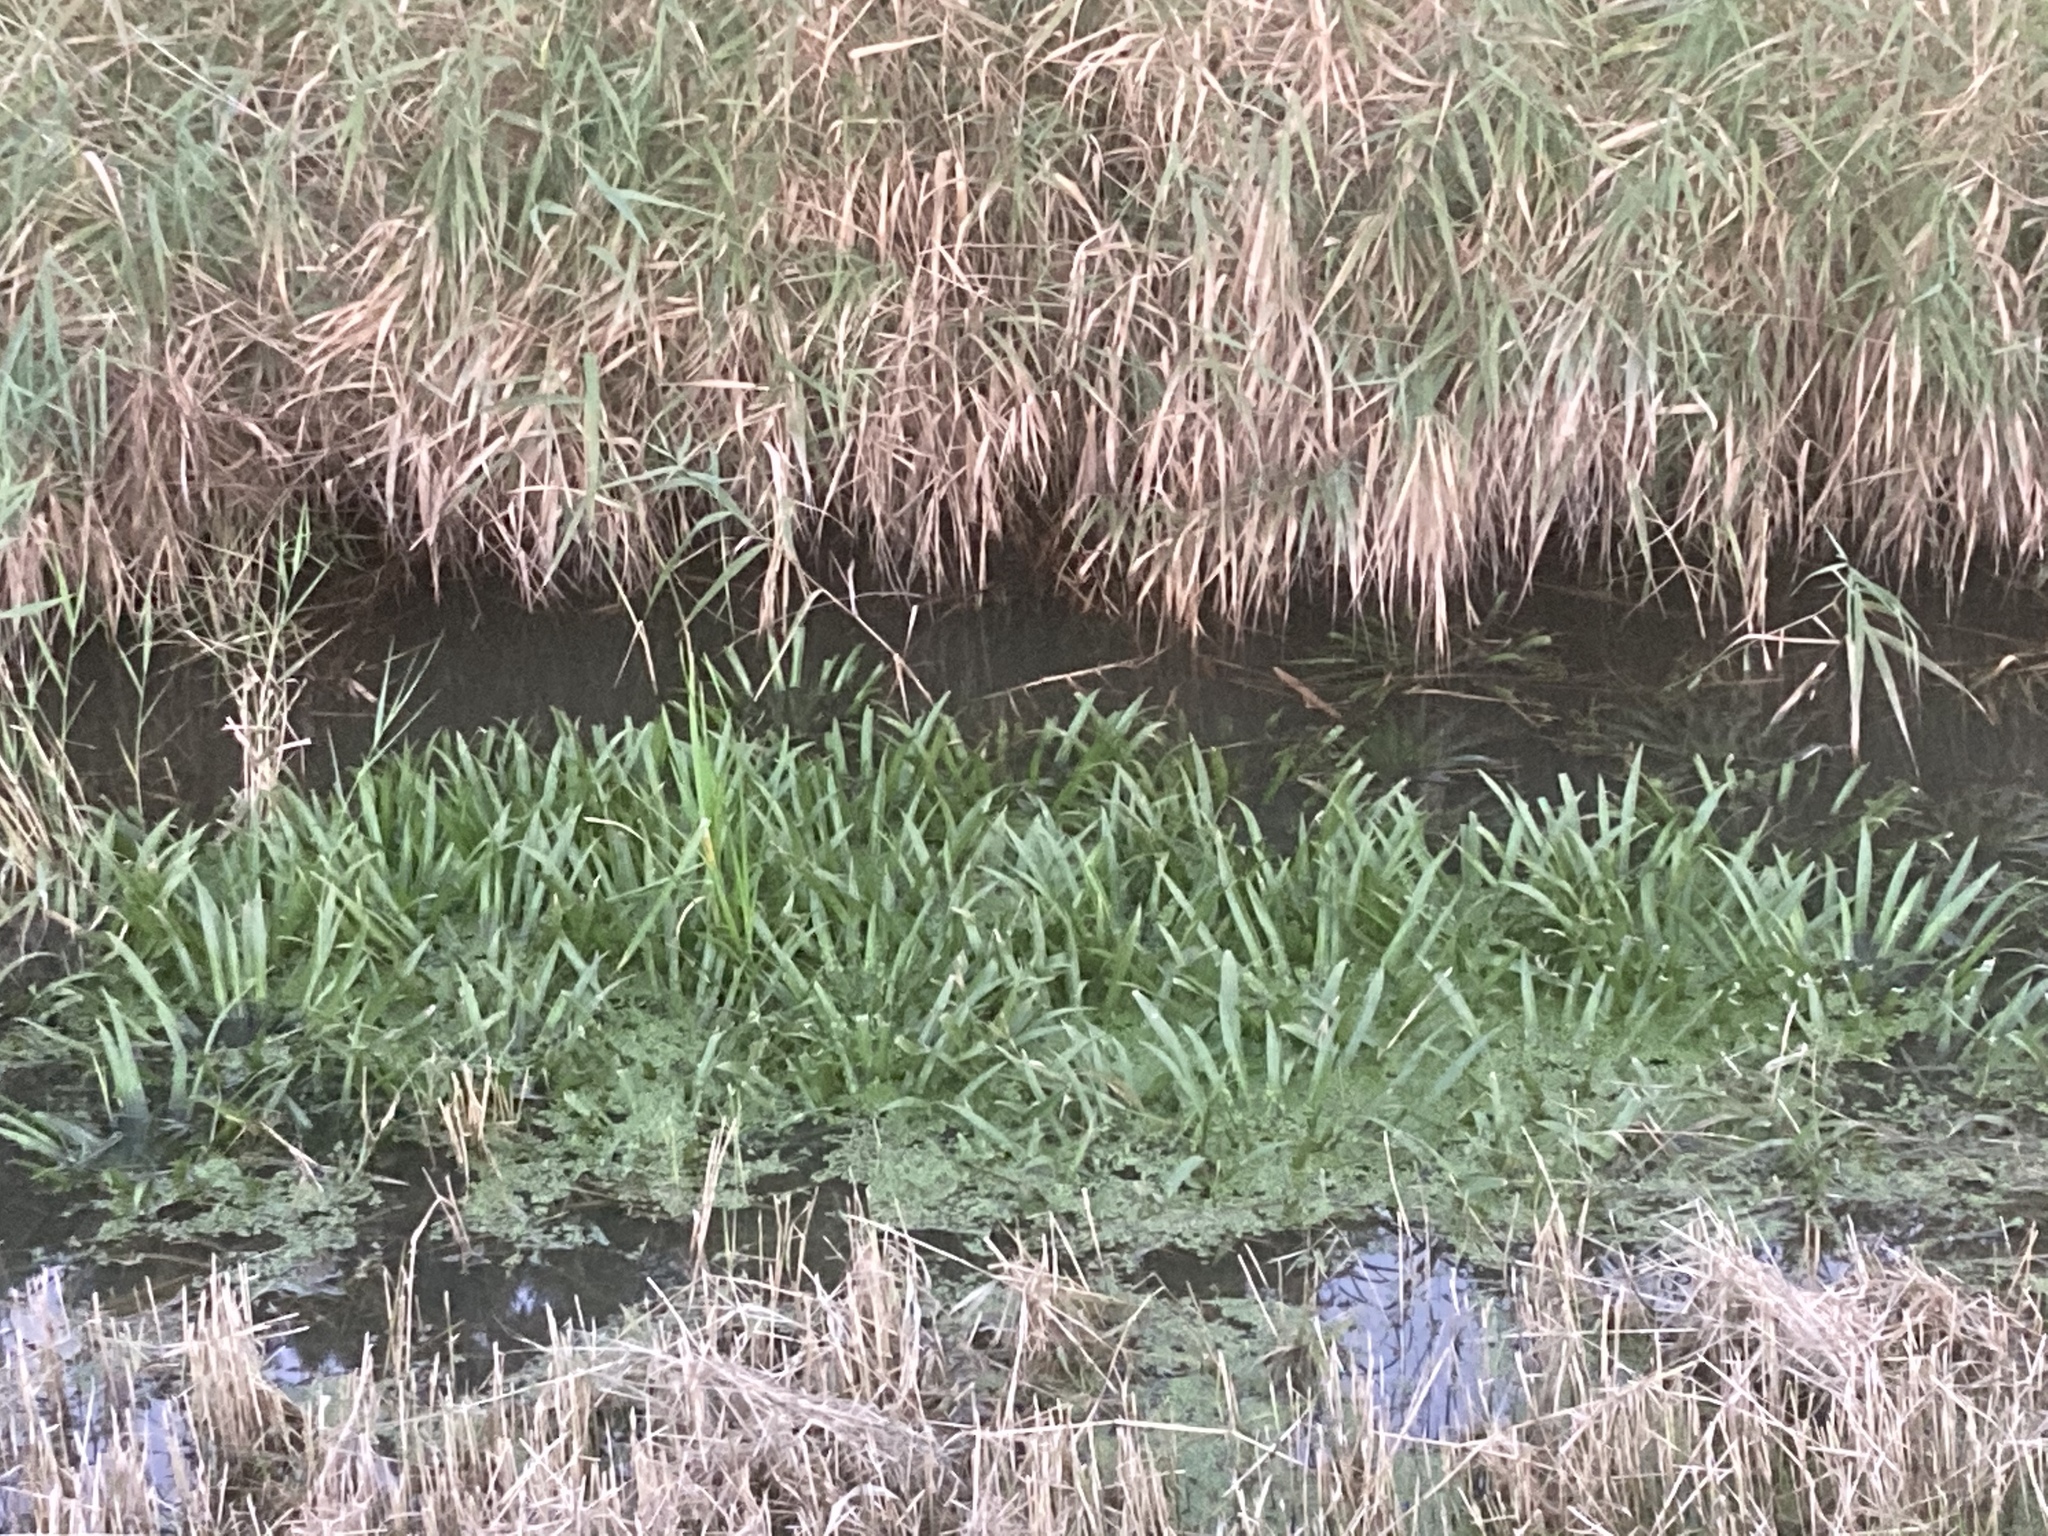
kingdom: Plantae
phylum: Tracheophyta
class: Liliopsida
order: Alismatales
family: Hydrocharitaceae
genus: Stratiotes
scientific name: Stratiotes aloides
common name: Water-soldier
